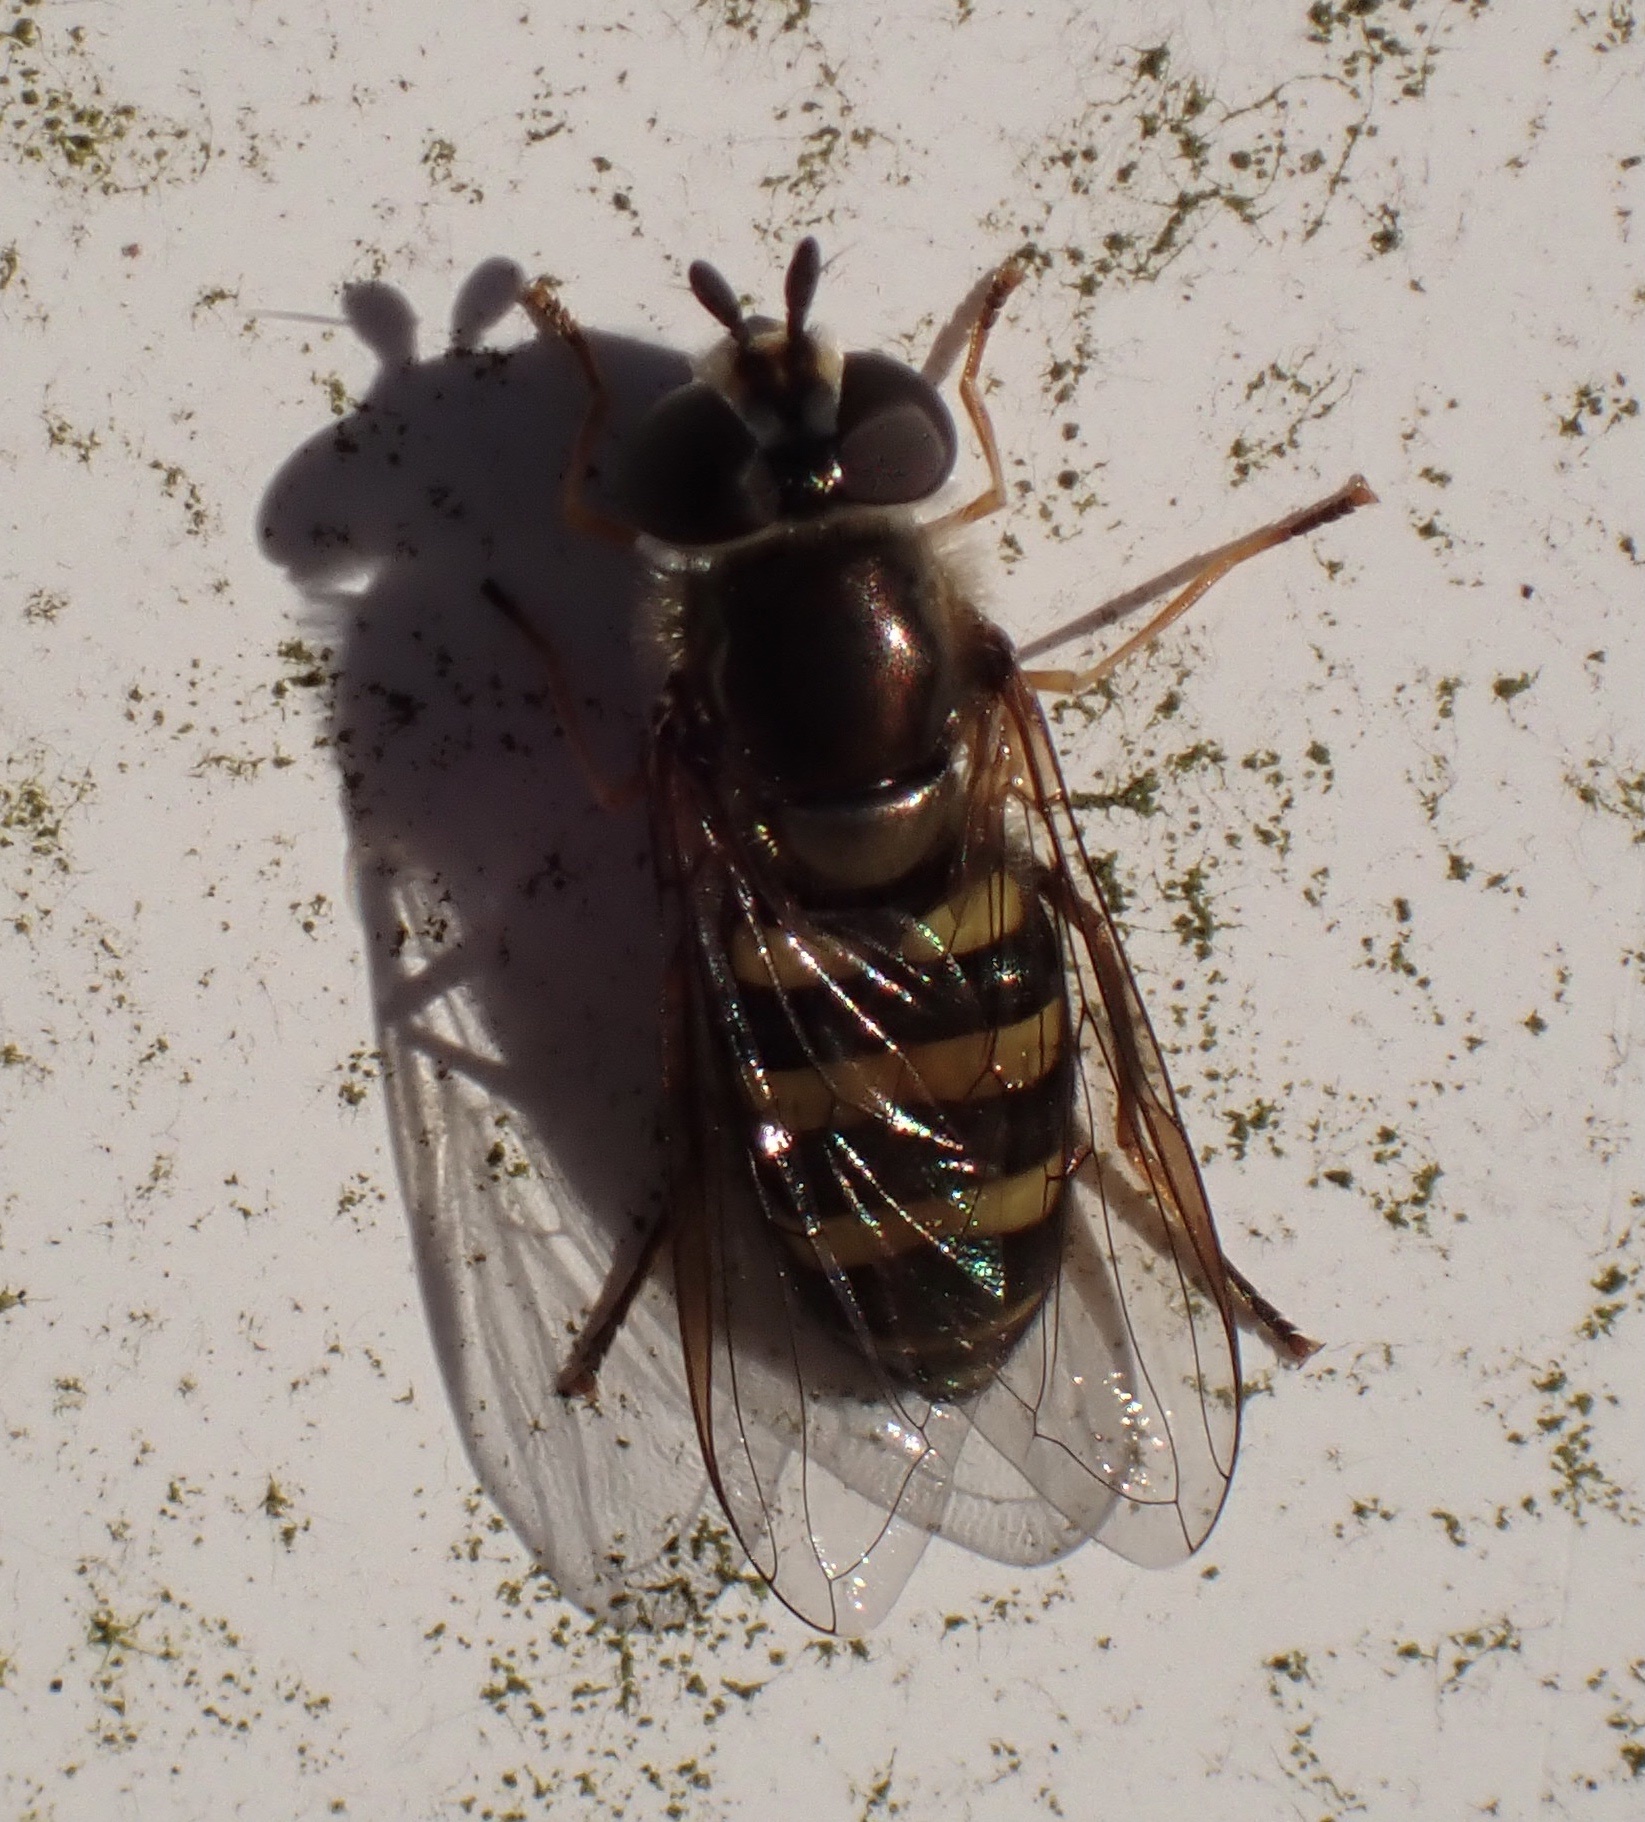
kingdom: Animalia
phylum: Arthropoda
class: Insecta
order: Diptera
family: Syrphidae
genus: Eupeodes
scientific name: Eupeodes
